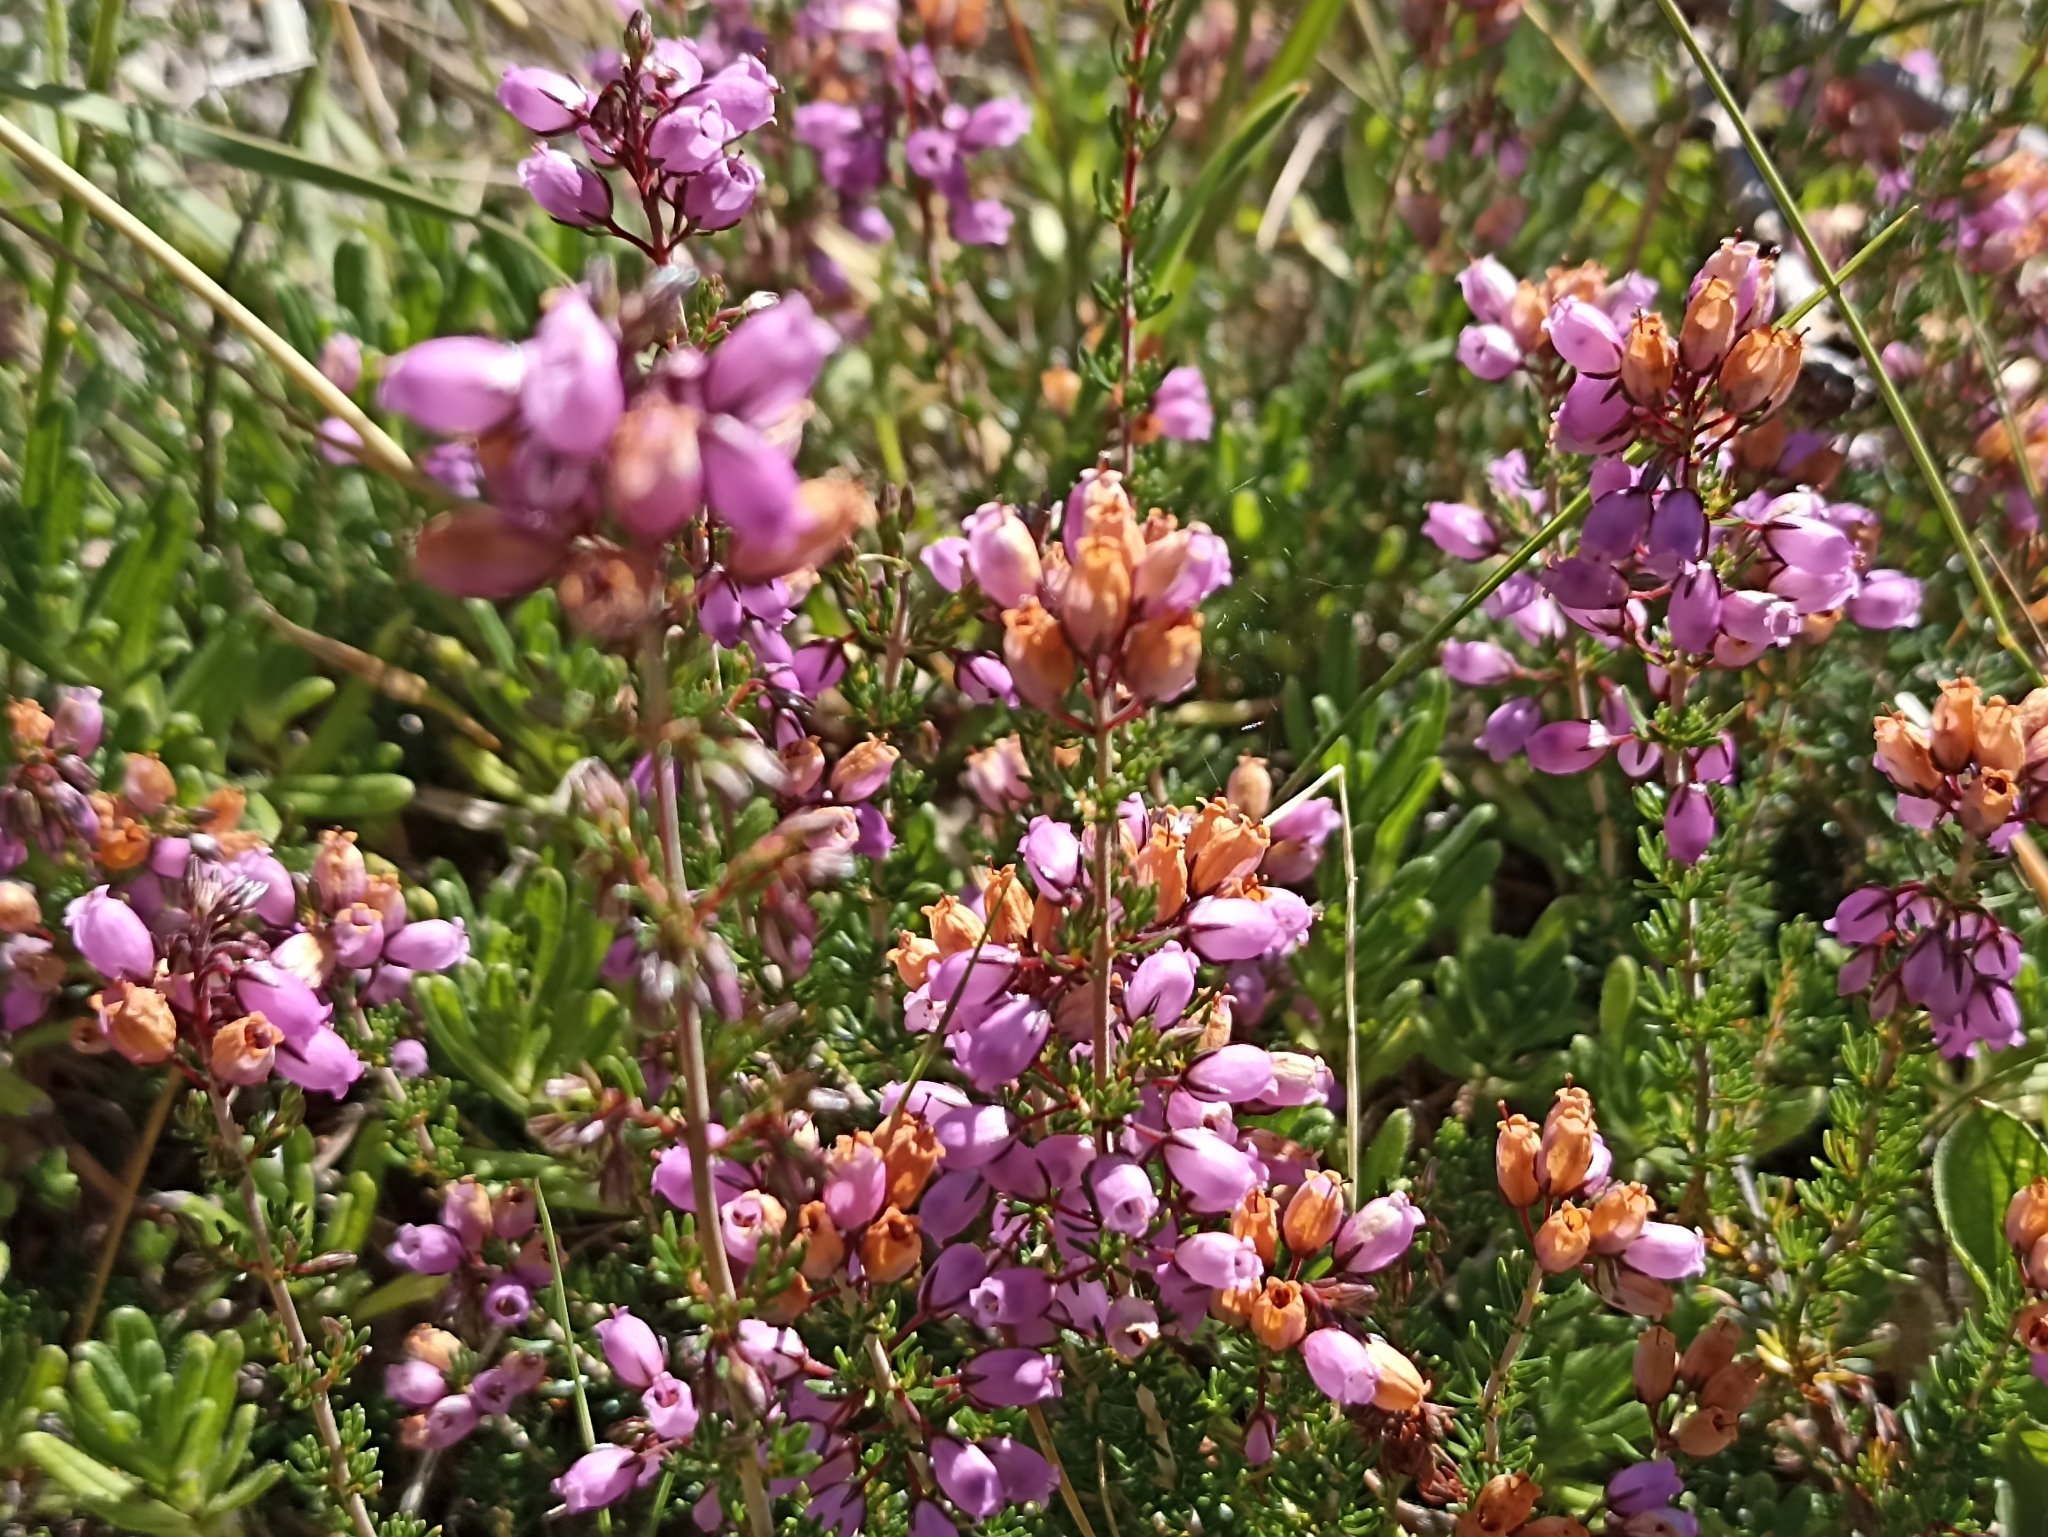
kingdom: Plantae
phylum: Tracheophyta
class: Magnoliopsida
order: Ericales
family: Ericaceae
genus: Erica
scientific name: Erica cinerea
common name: Bell heather
